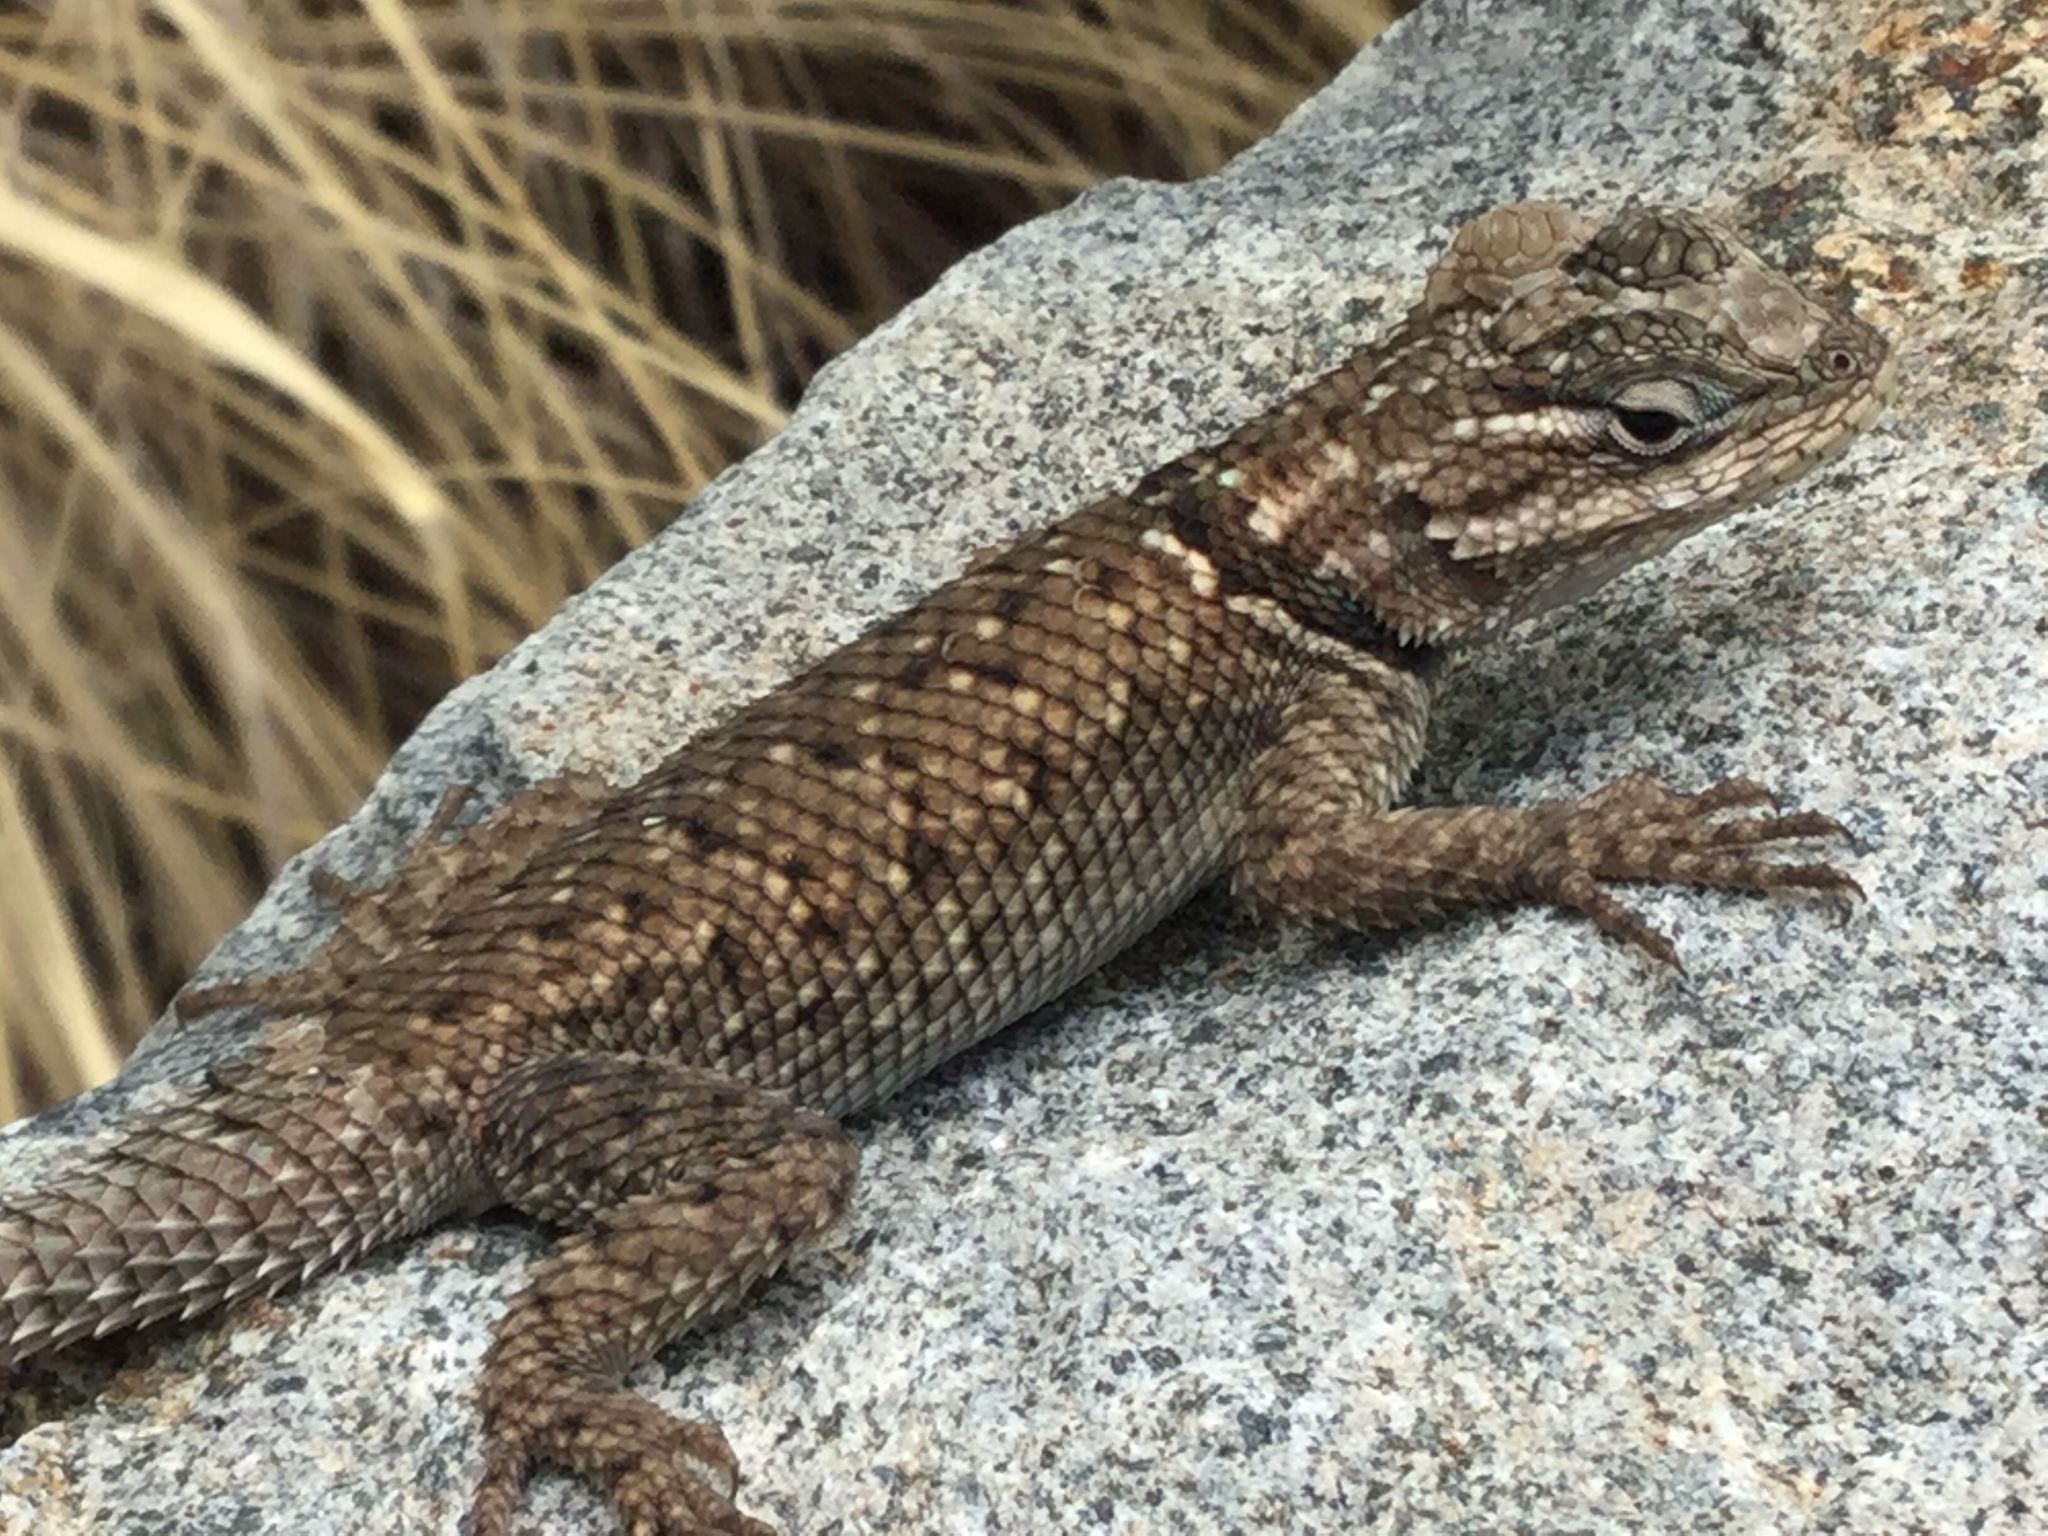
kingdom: Animalia
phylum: Chordata
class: Squamata
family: Phrynosomatidae
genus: Sceloporus
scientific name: Sceloporus jarrovii
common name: Yarrow's spiny lizard
